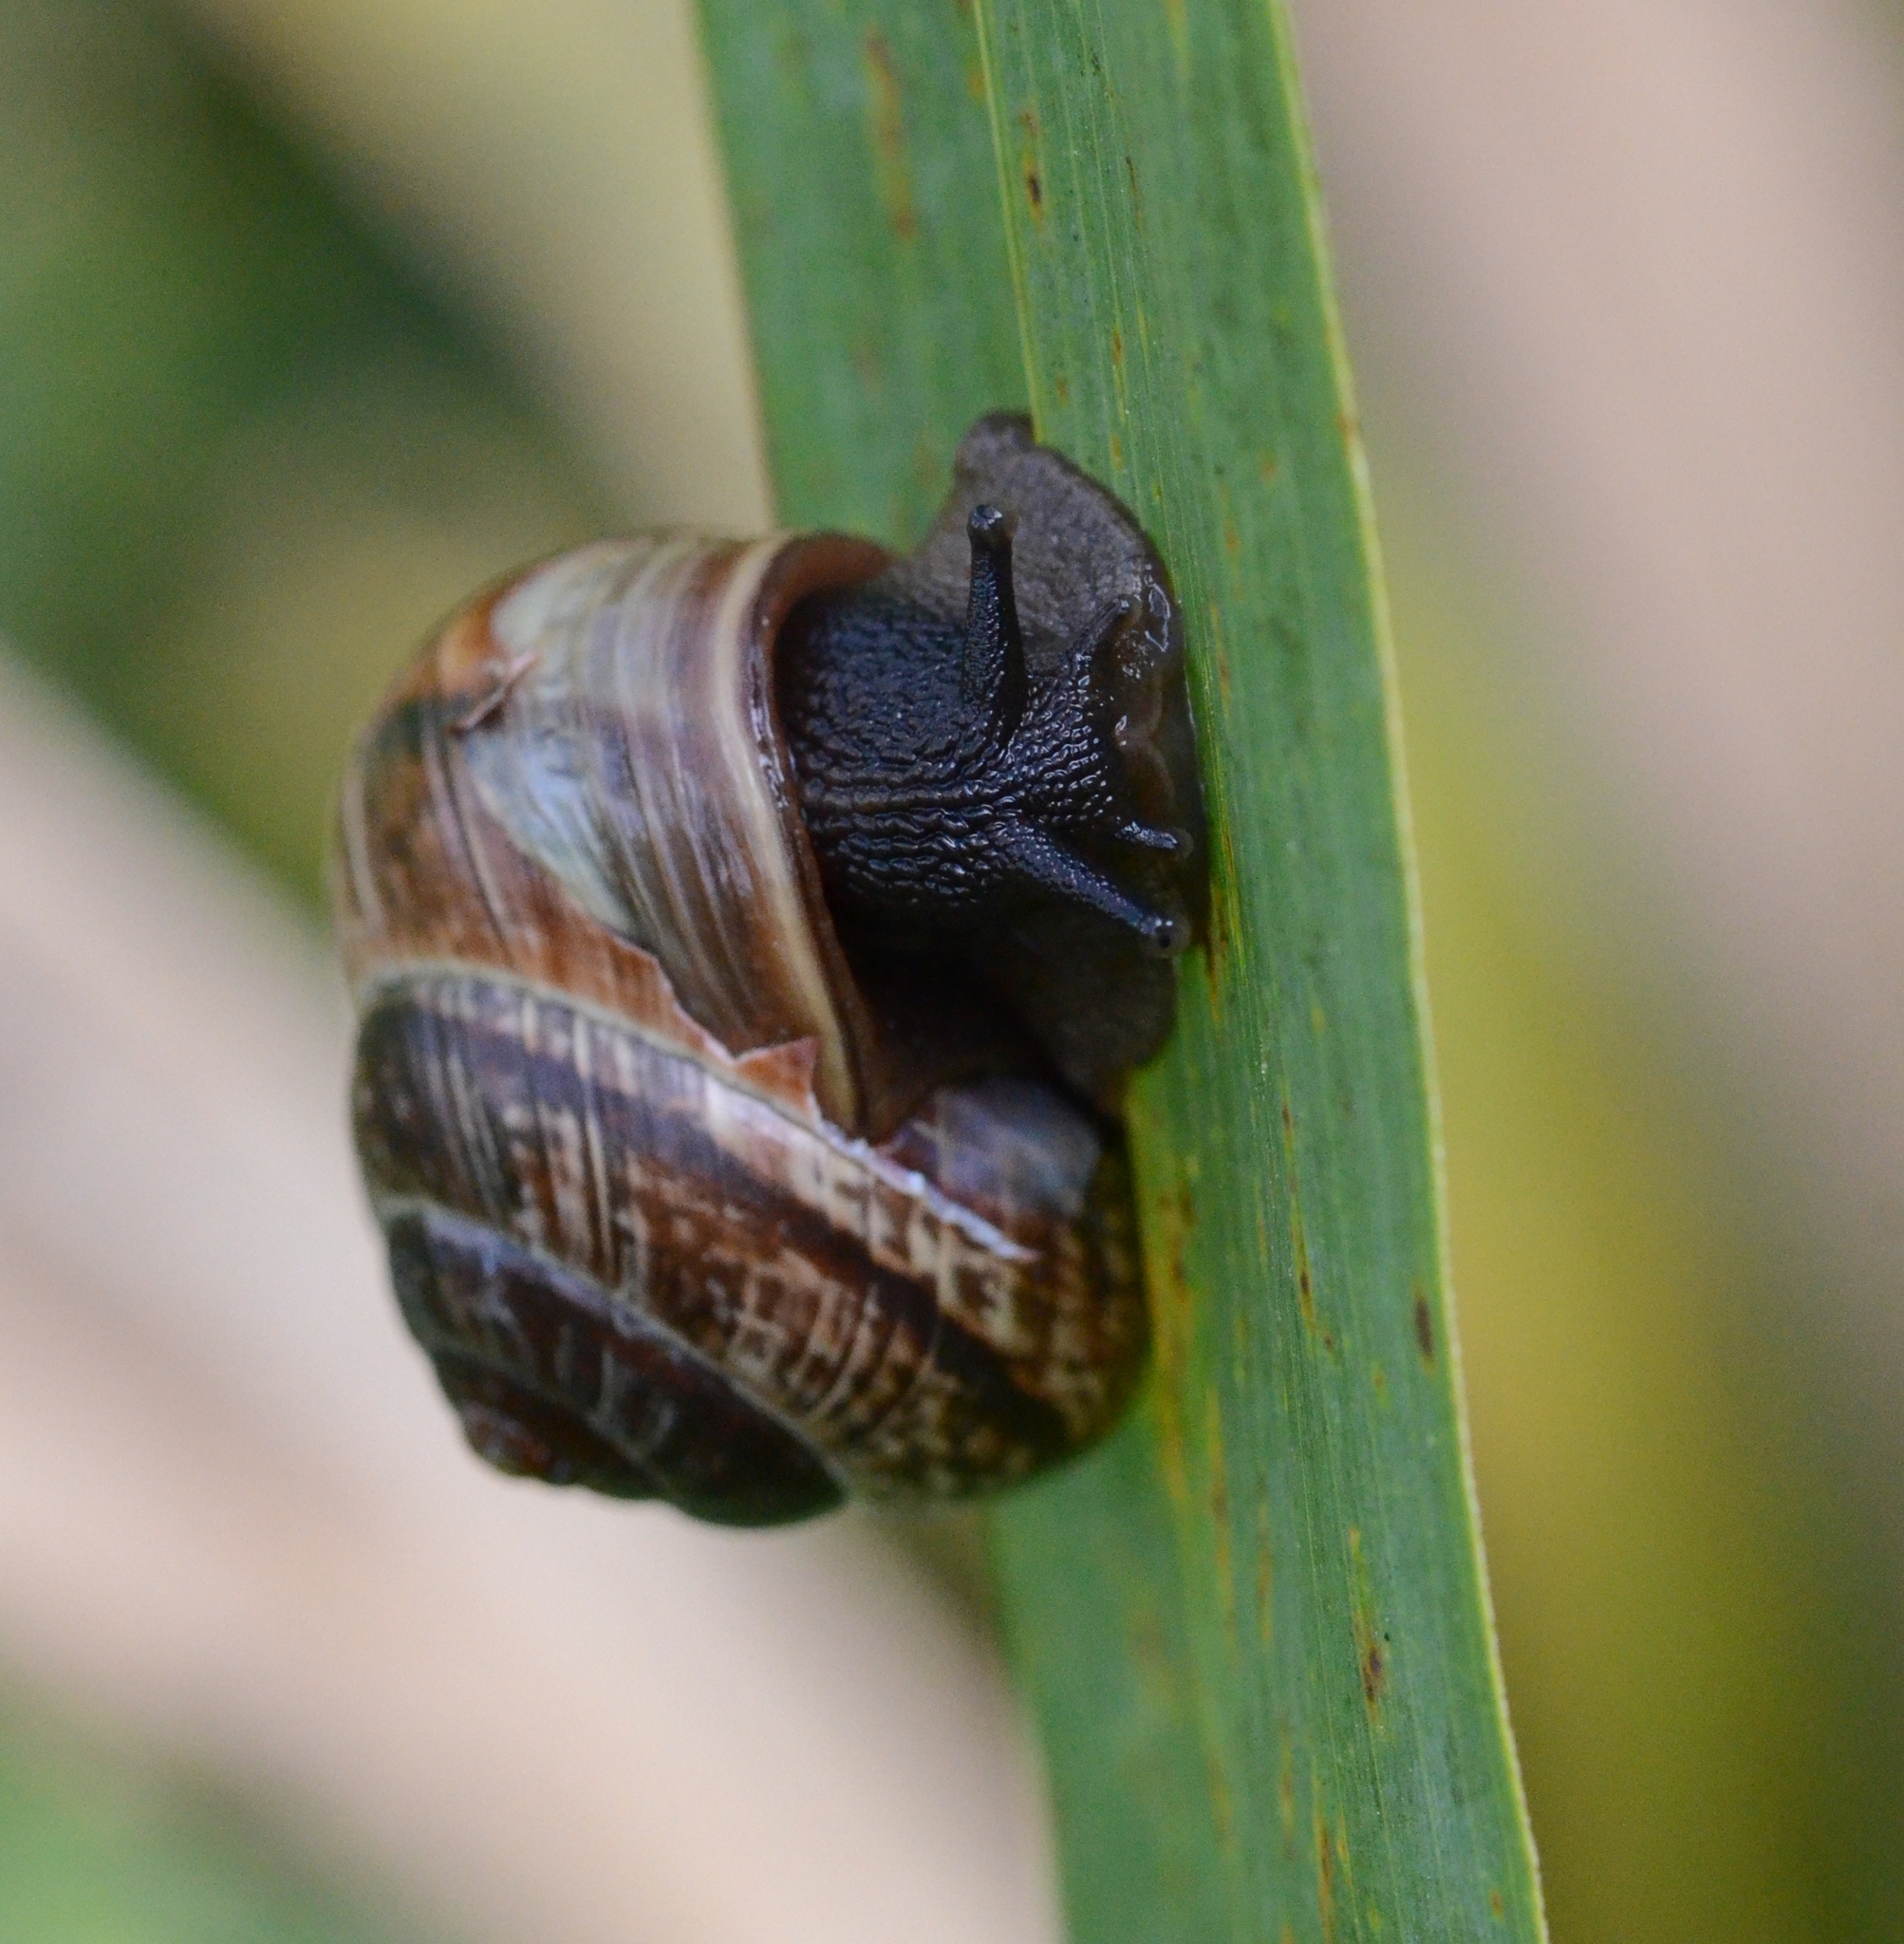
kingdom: Animalia
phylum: Mollusca
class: Gastropoda
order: Stylommatophora
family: Helicidae
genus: Arianta
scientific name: Arianta arbustorum
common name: Copse snail
